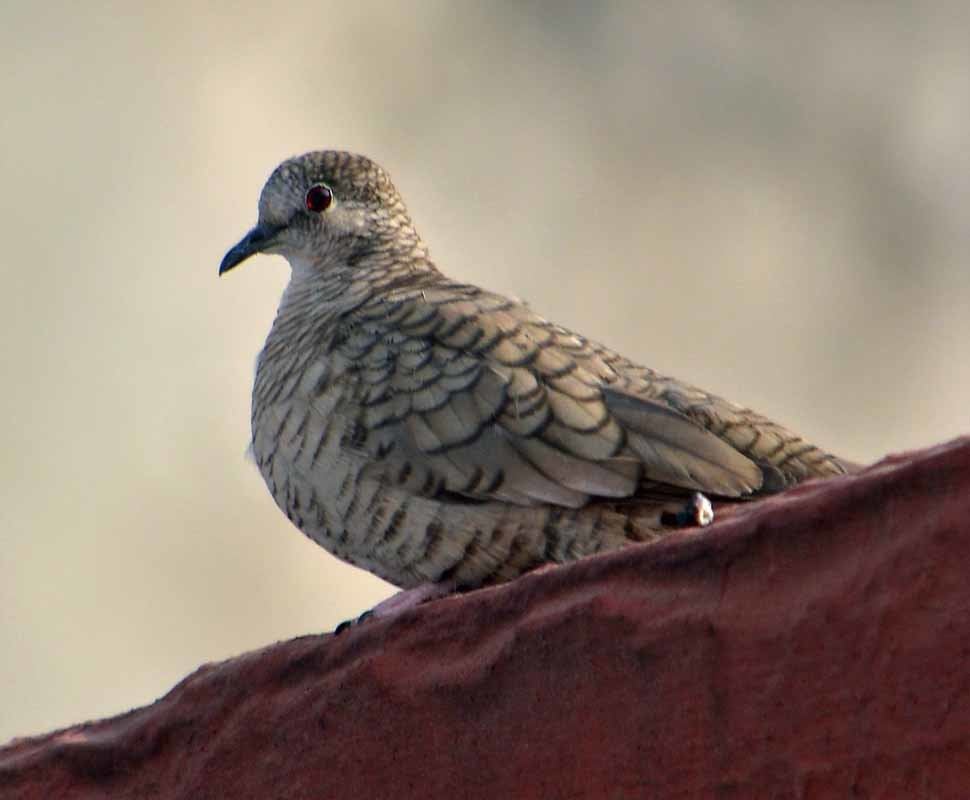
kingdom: Animalia
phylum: Chordata
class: Aves
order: Columbiformes
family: Columbidae
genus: Columbina
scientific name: Columbina inca
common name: Inca dove
